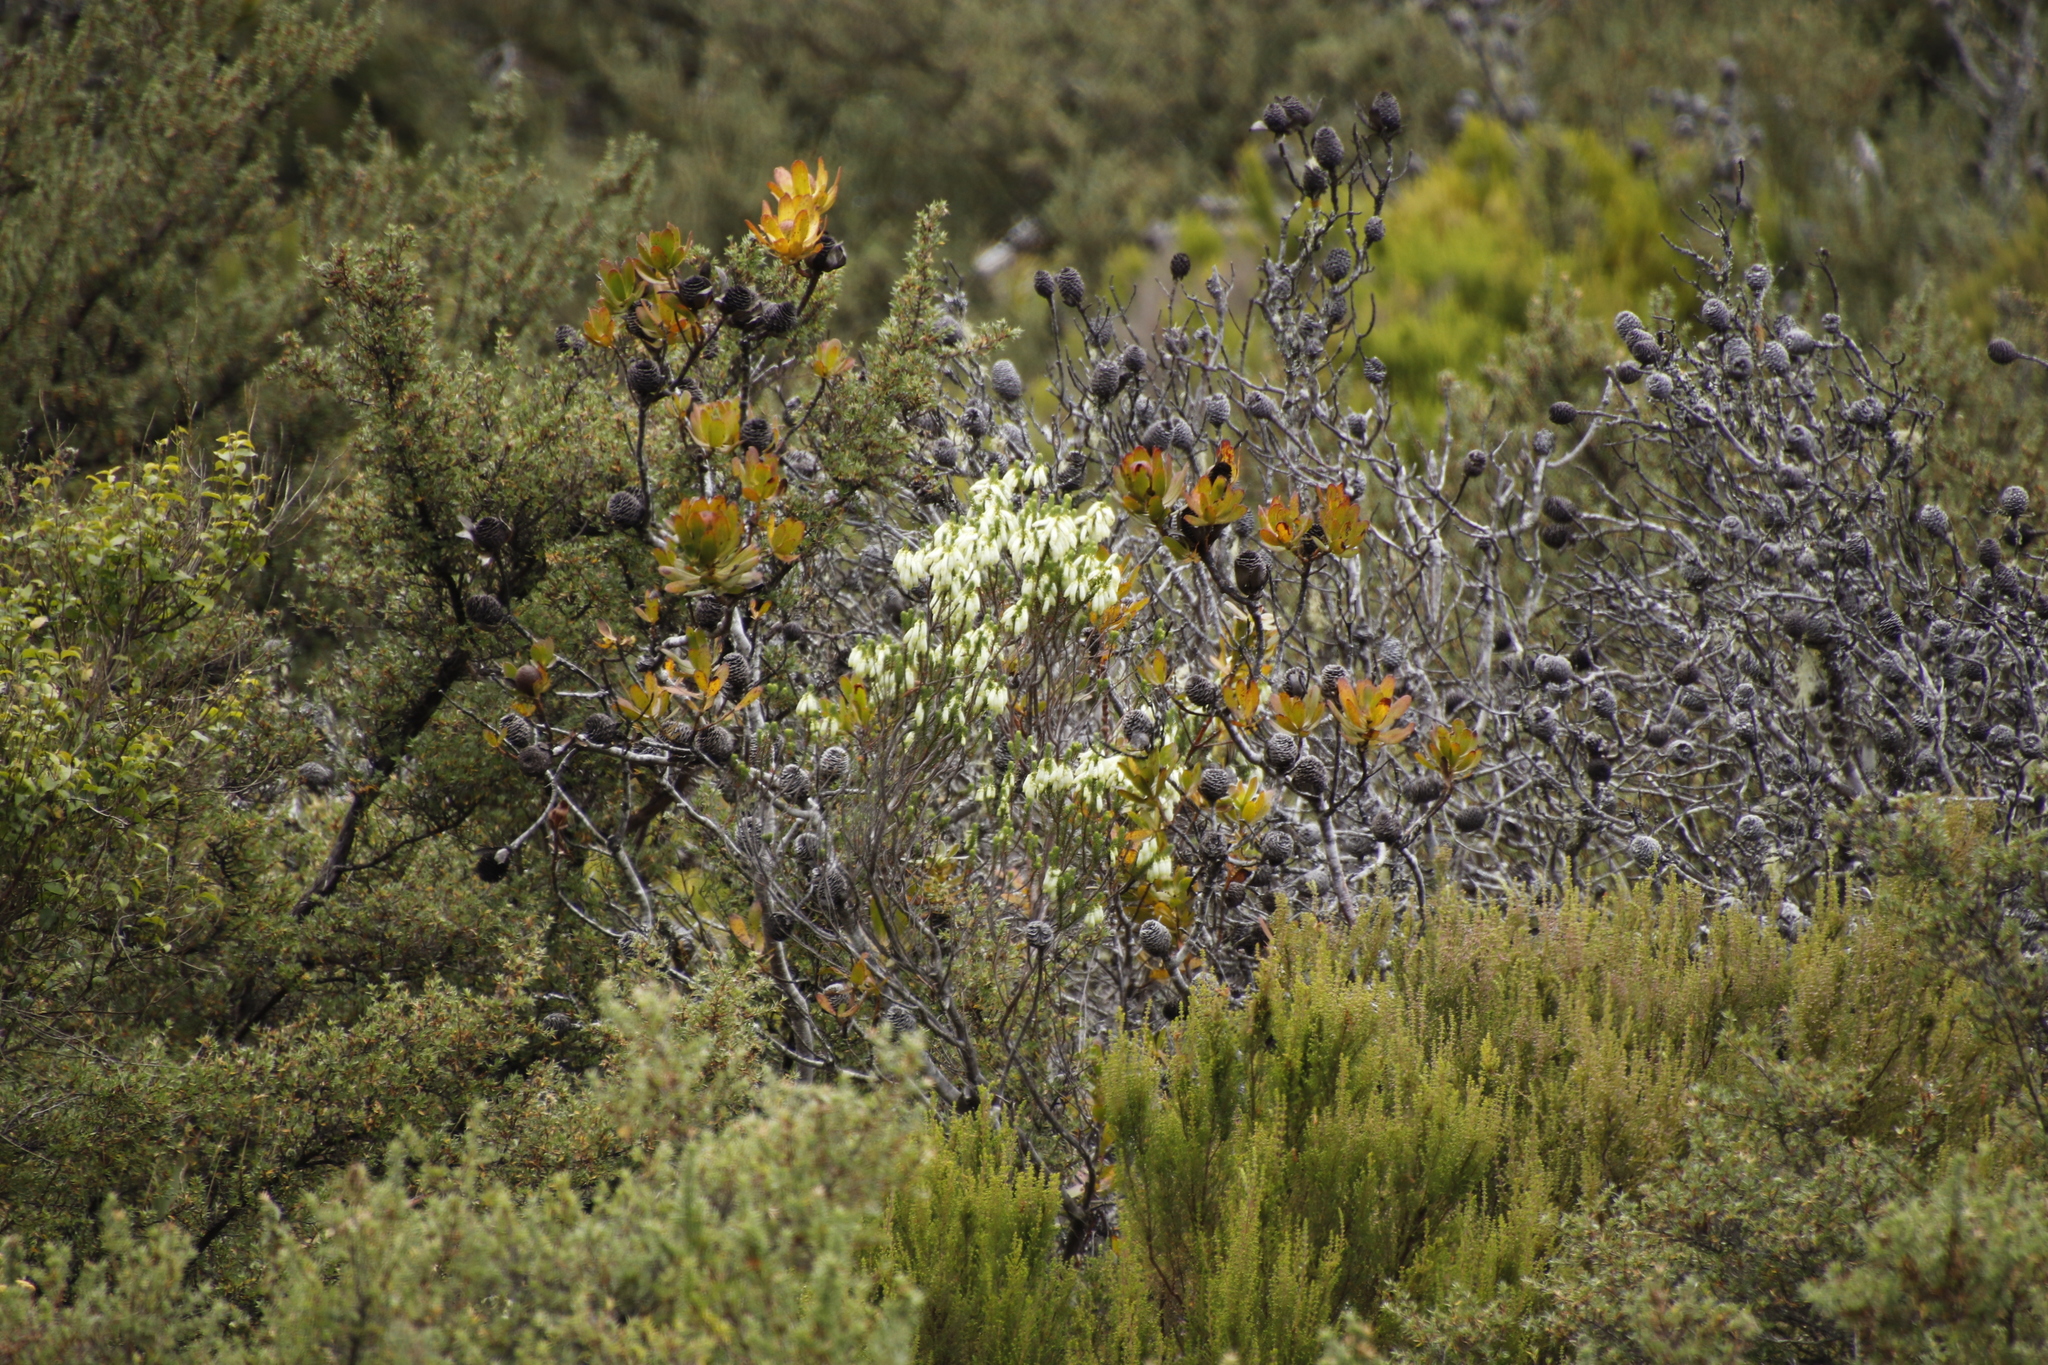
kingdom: Plantae
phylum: Tracheophyta
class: Magnoliopsida
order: Ericales
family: Ericaceae
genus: Erica
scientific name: Erica mammosa
